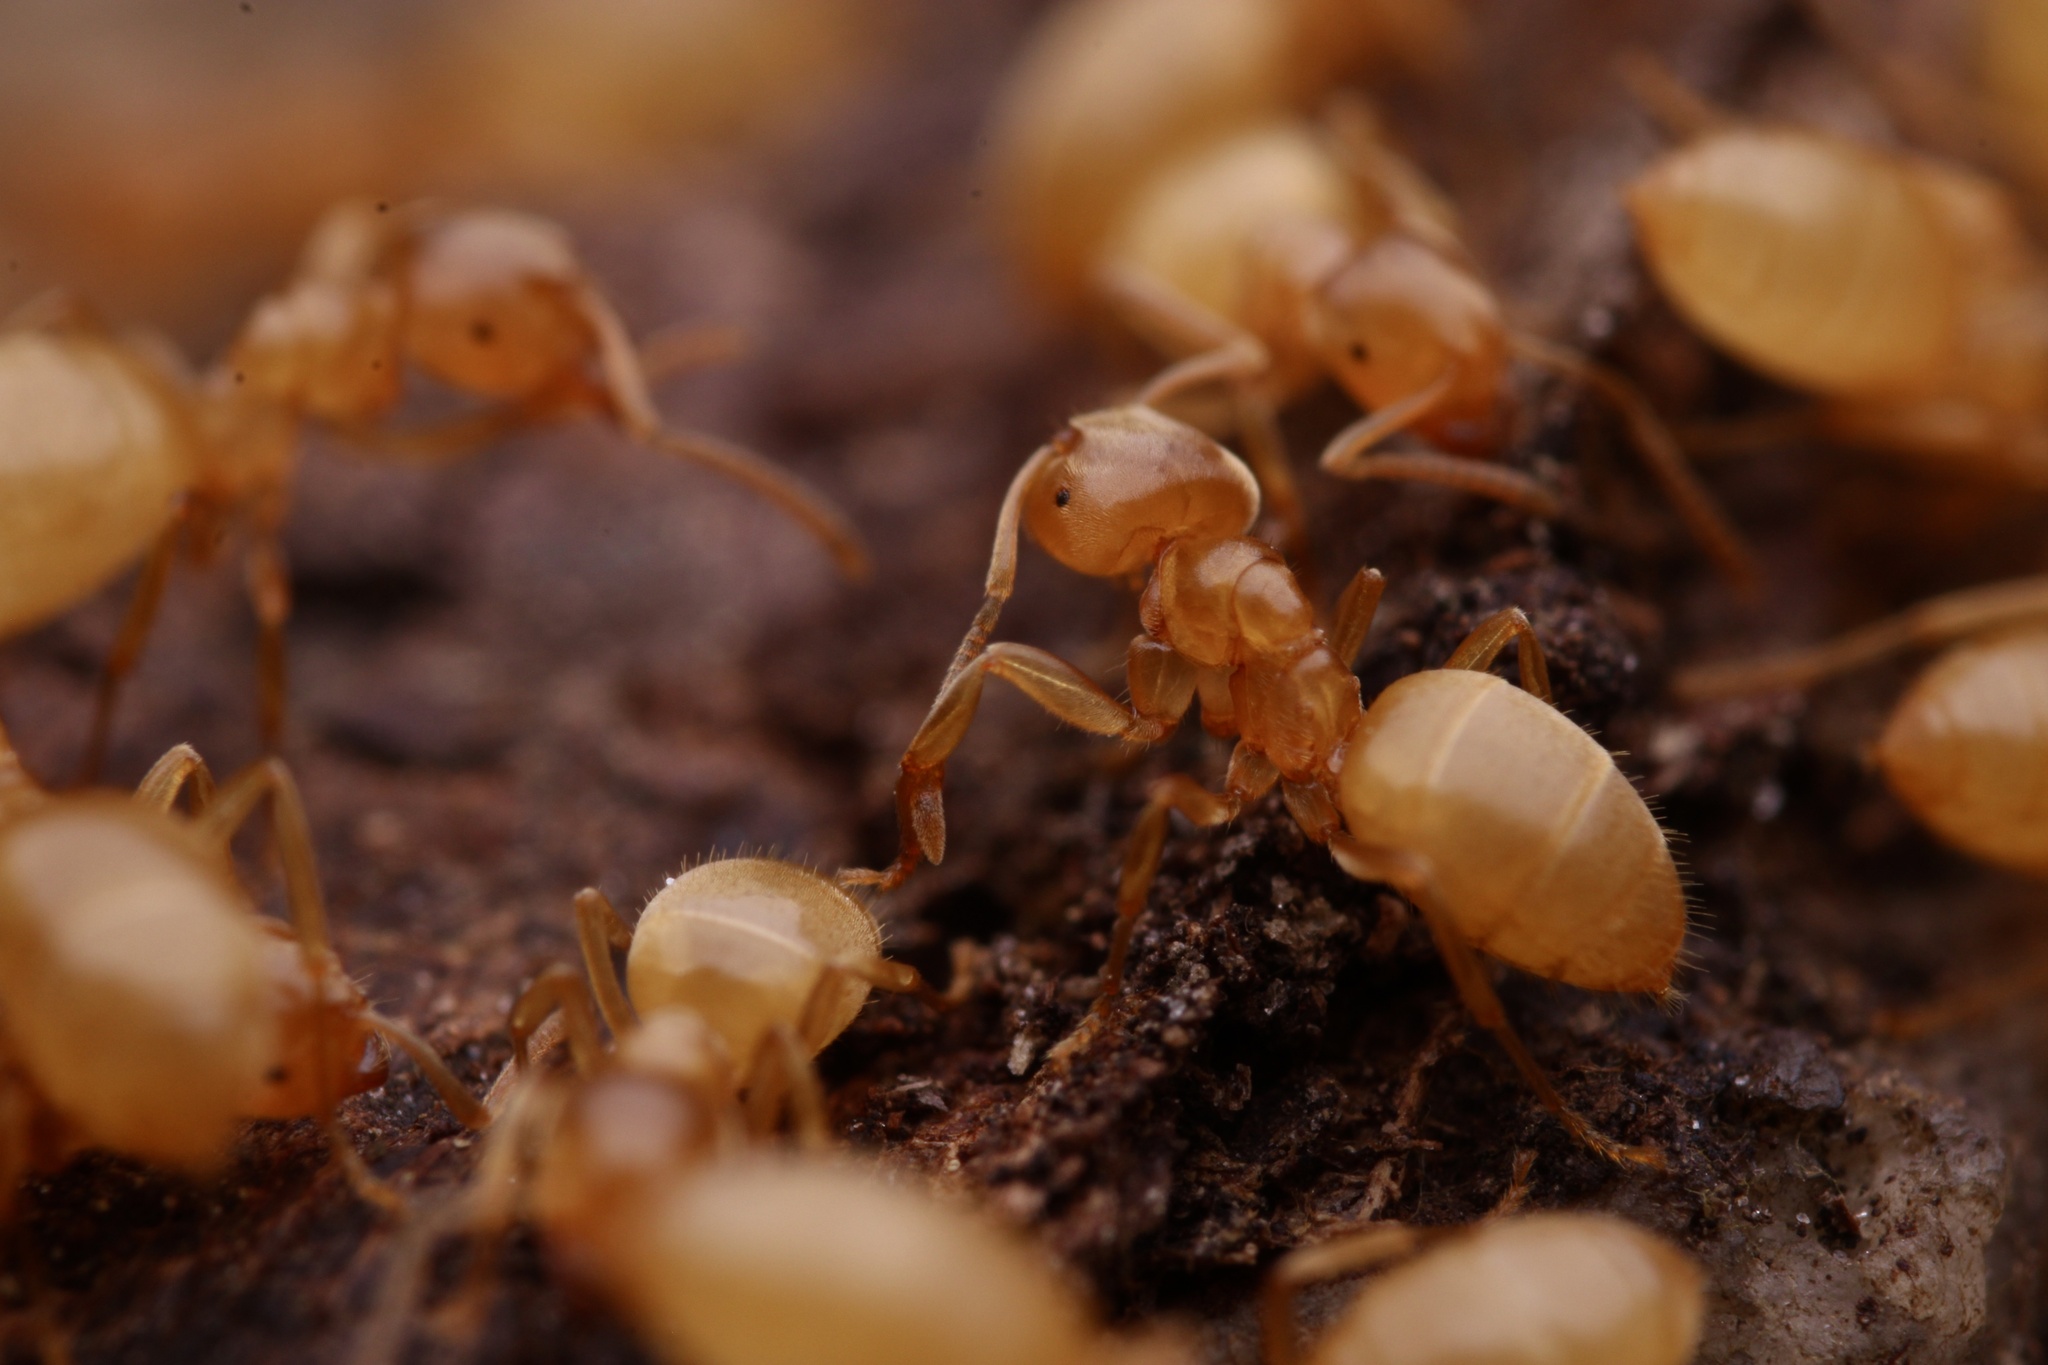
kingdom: Animalia
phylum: Arthropoda
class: Insecta
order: Hymenoptera
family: Formicidae
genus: Lasius
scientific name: Lasius nearcticus
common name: New world fuzzy ant
